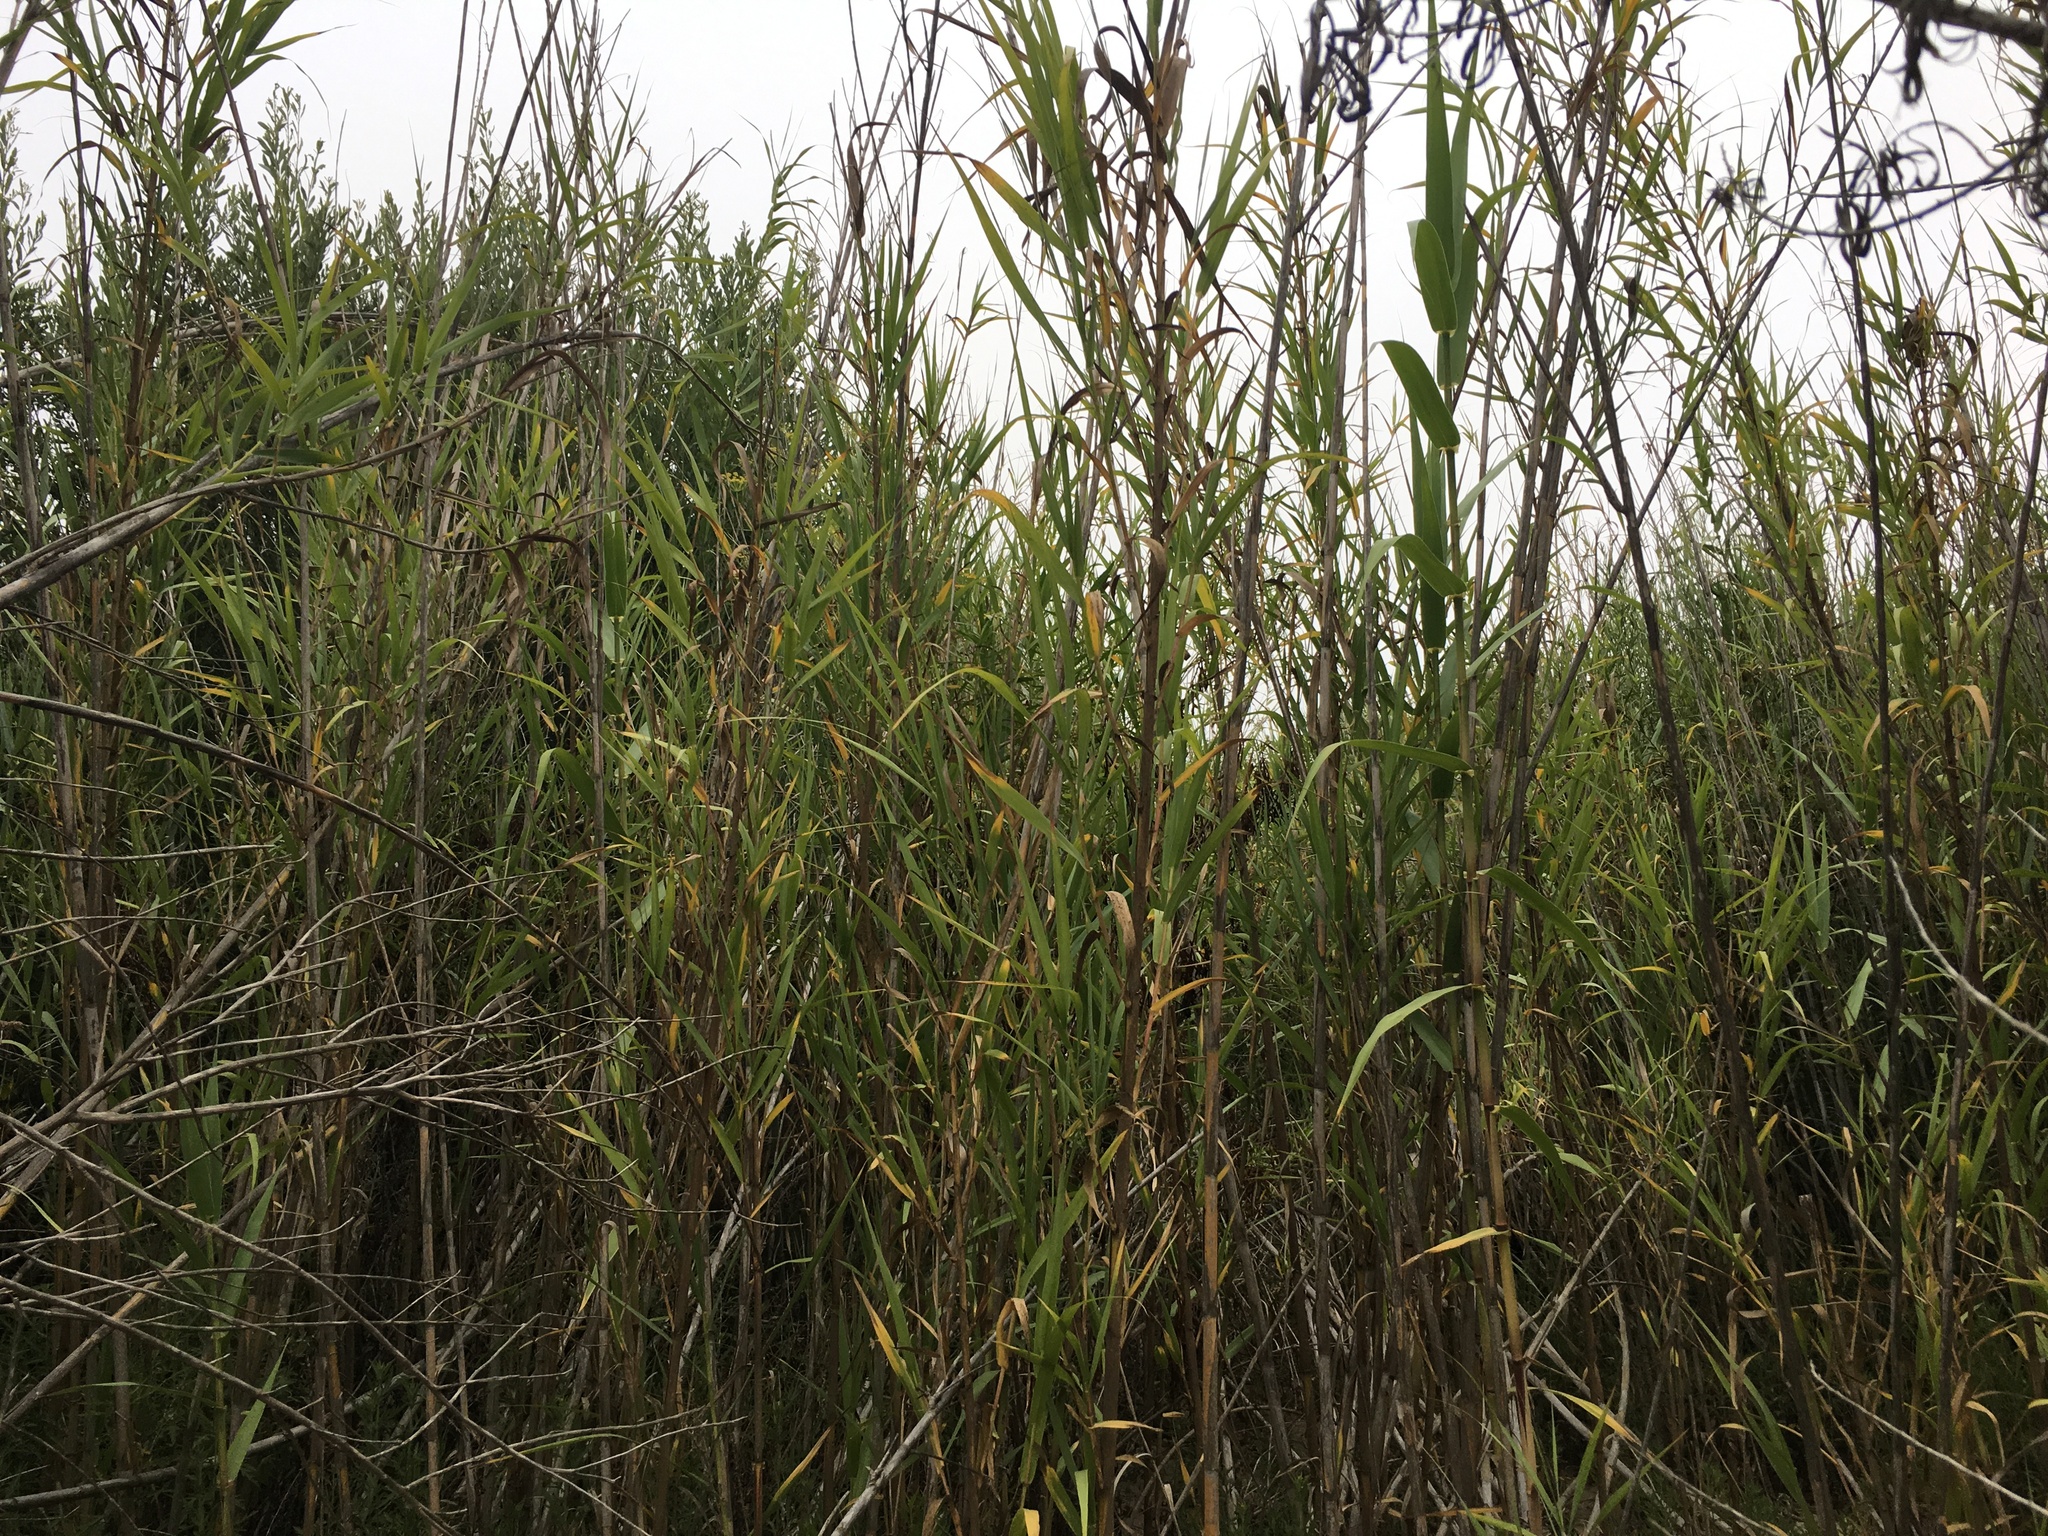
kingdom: Plantae
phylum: Tracheophyta
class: Liliopsida
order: Poales
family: Poaceae
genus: Arundo
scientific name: Arundo donax
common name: Giant reed
